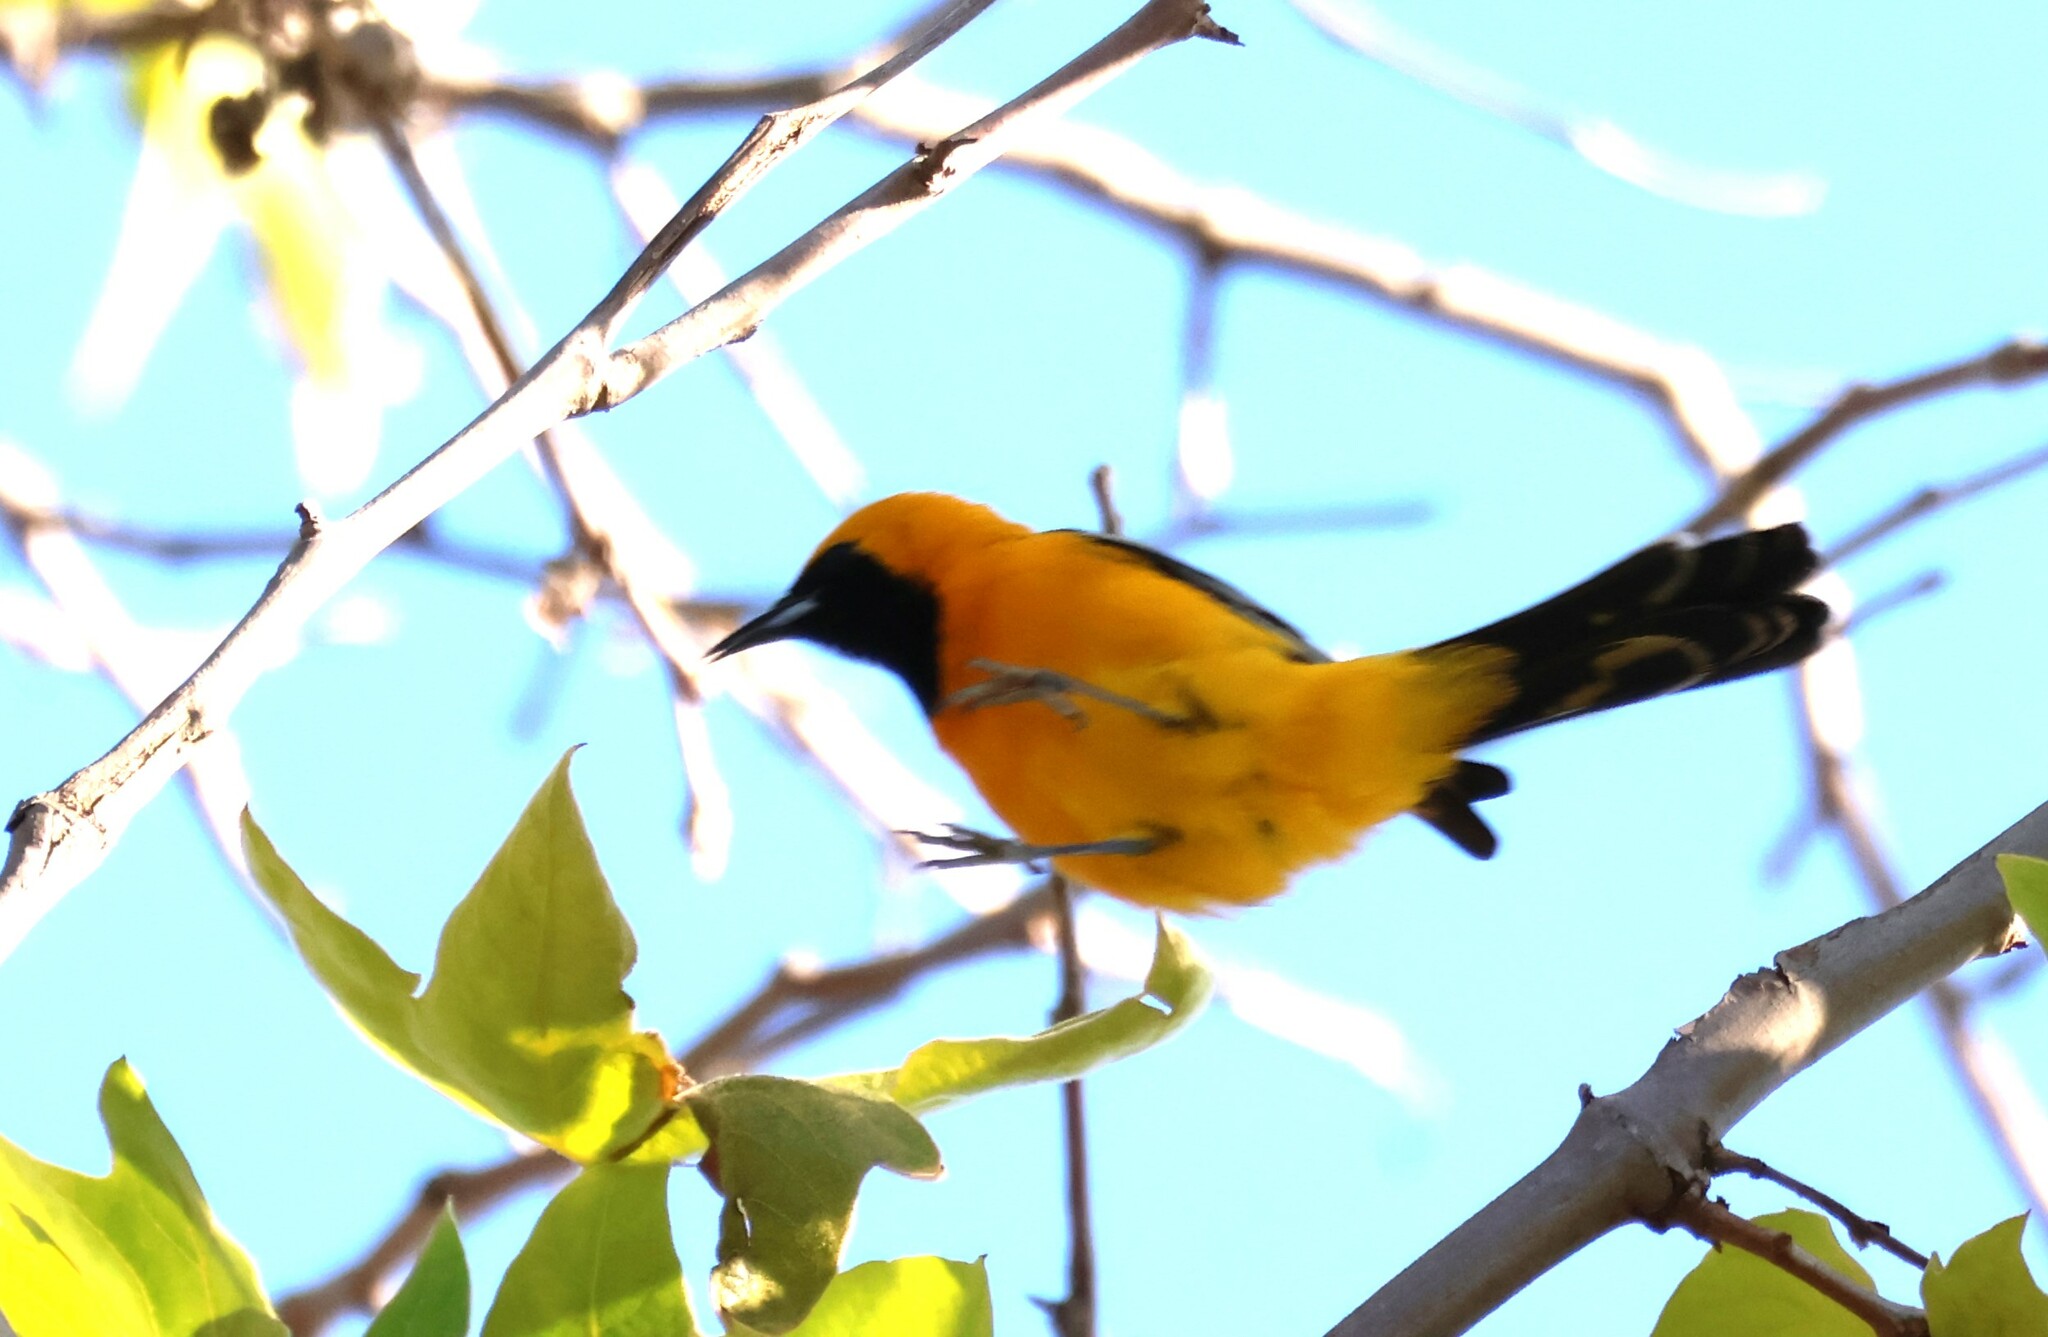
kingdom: Animalia
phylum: Chordata
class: Aves
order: Passeriformes
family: Icteridae
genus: Icterus
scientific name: Icterus cucullatus
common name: Hooded oriole
